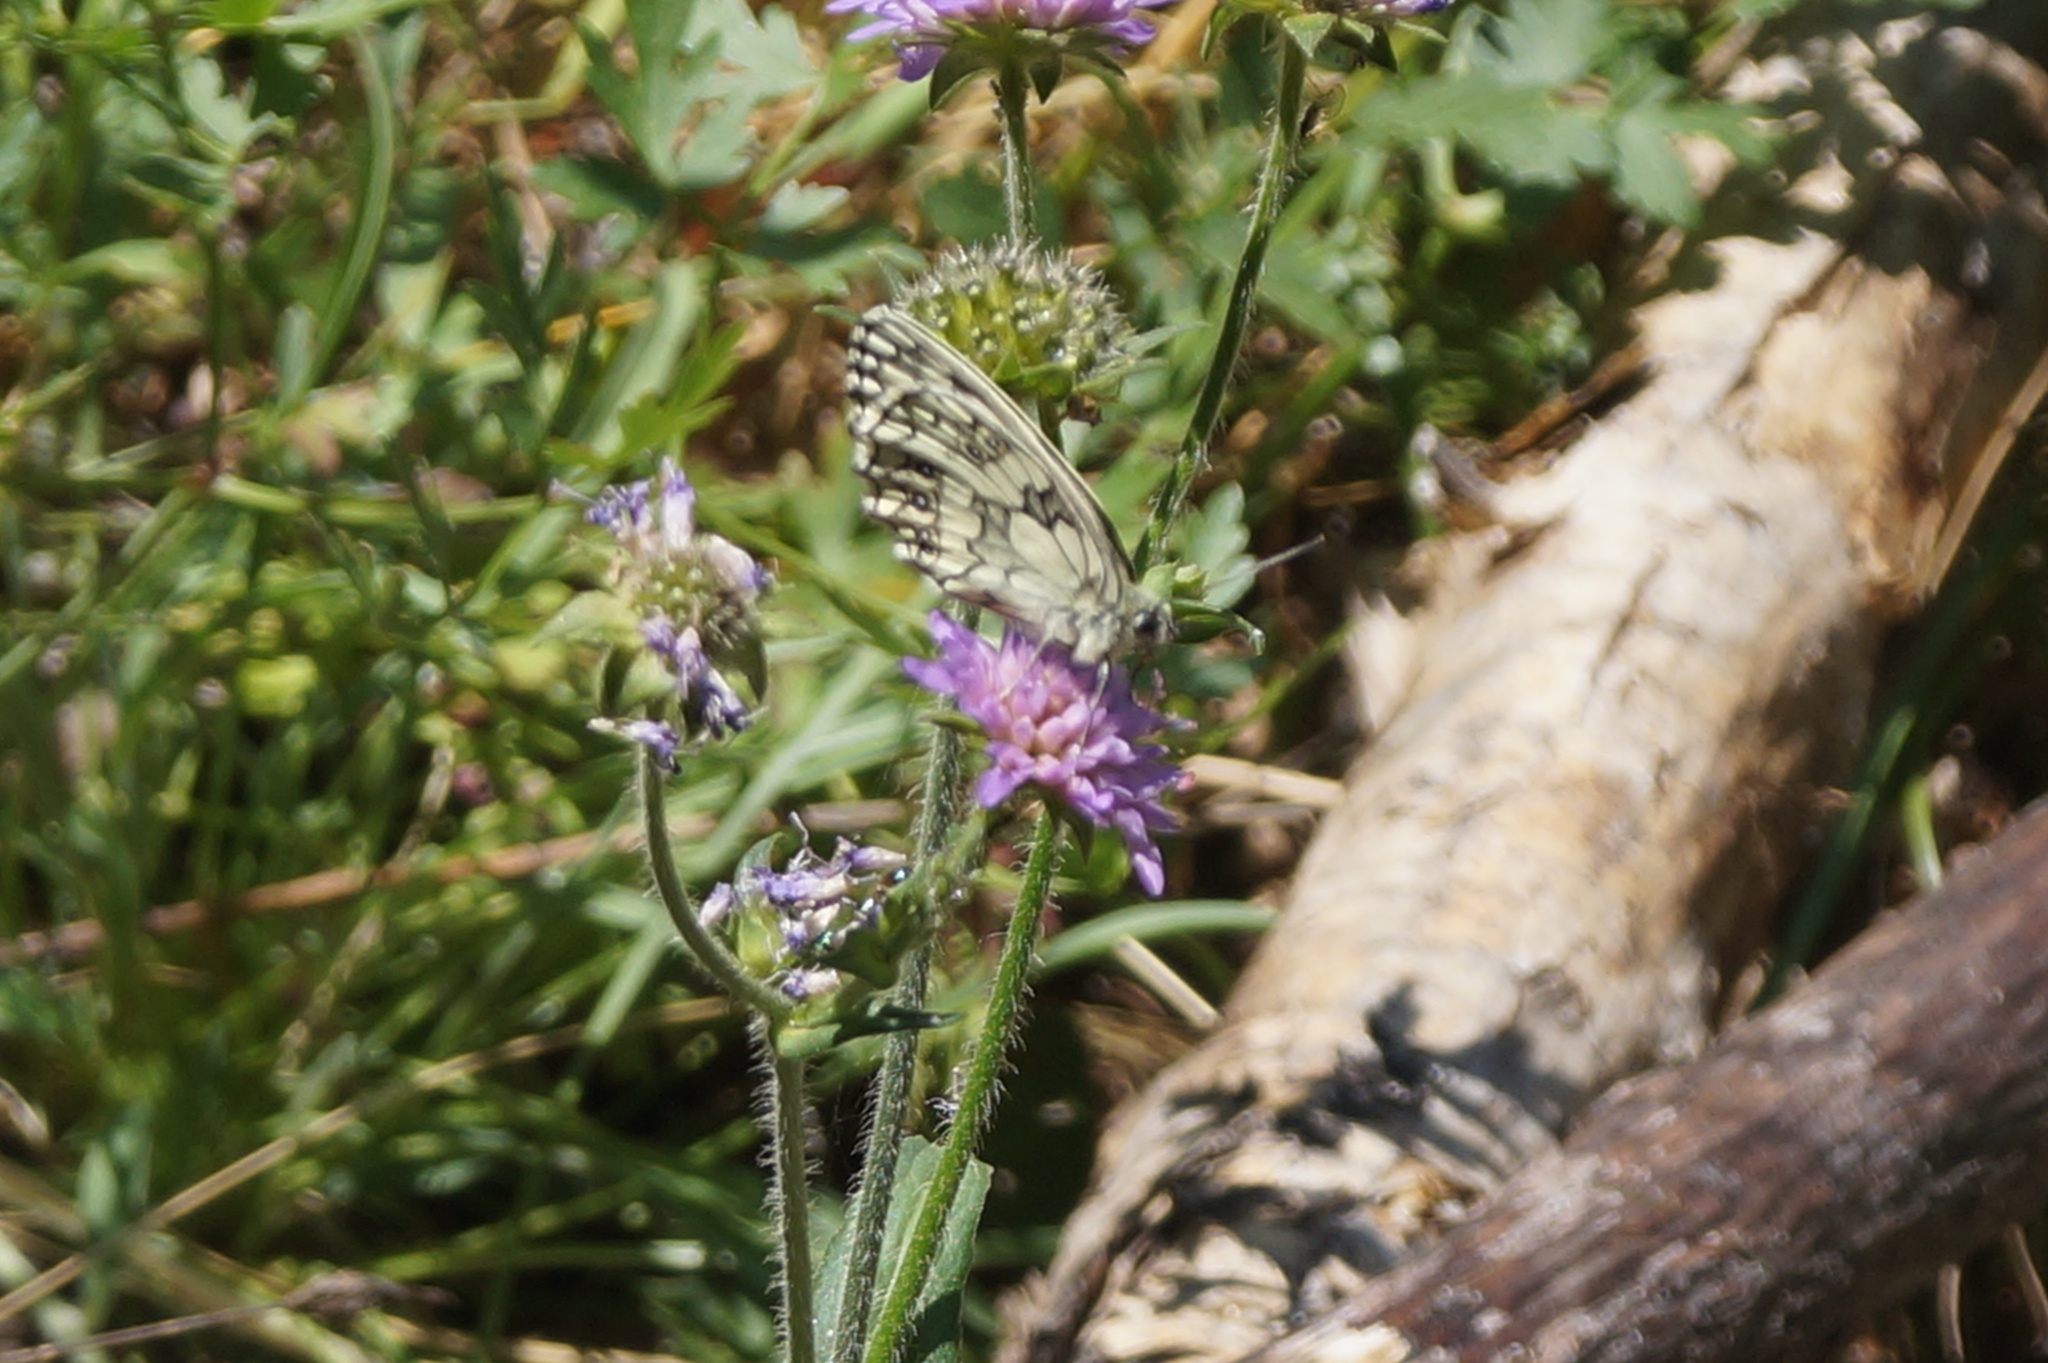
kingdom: Animalia
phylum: Arthropoda
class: Insecta
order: Lepidoptera
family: Nymphalidae
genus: Melanargia
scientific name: Melanargia galathea
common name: Marbled white
